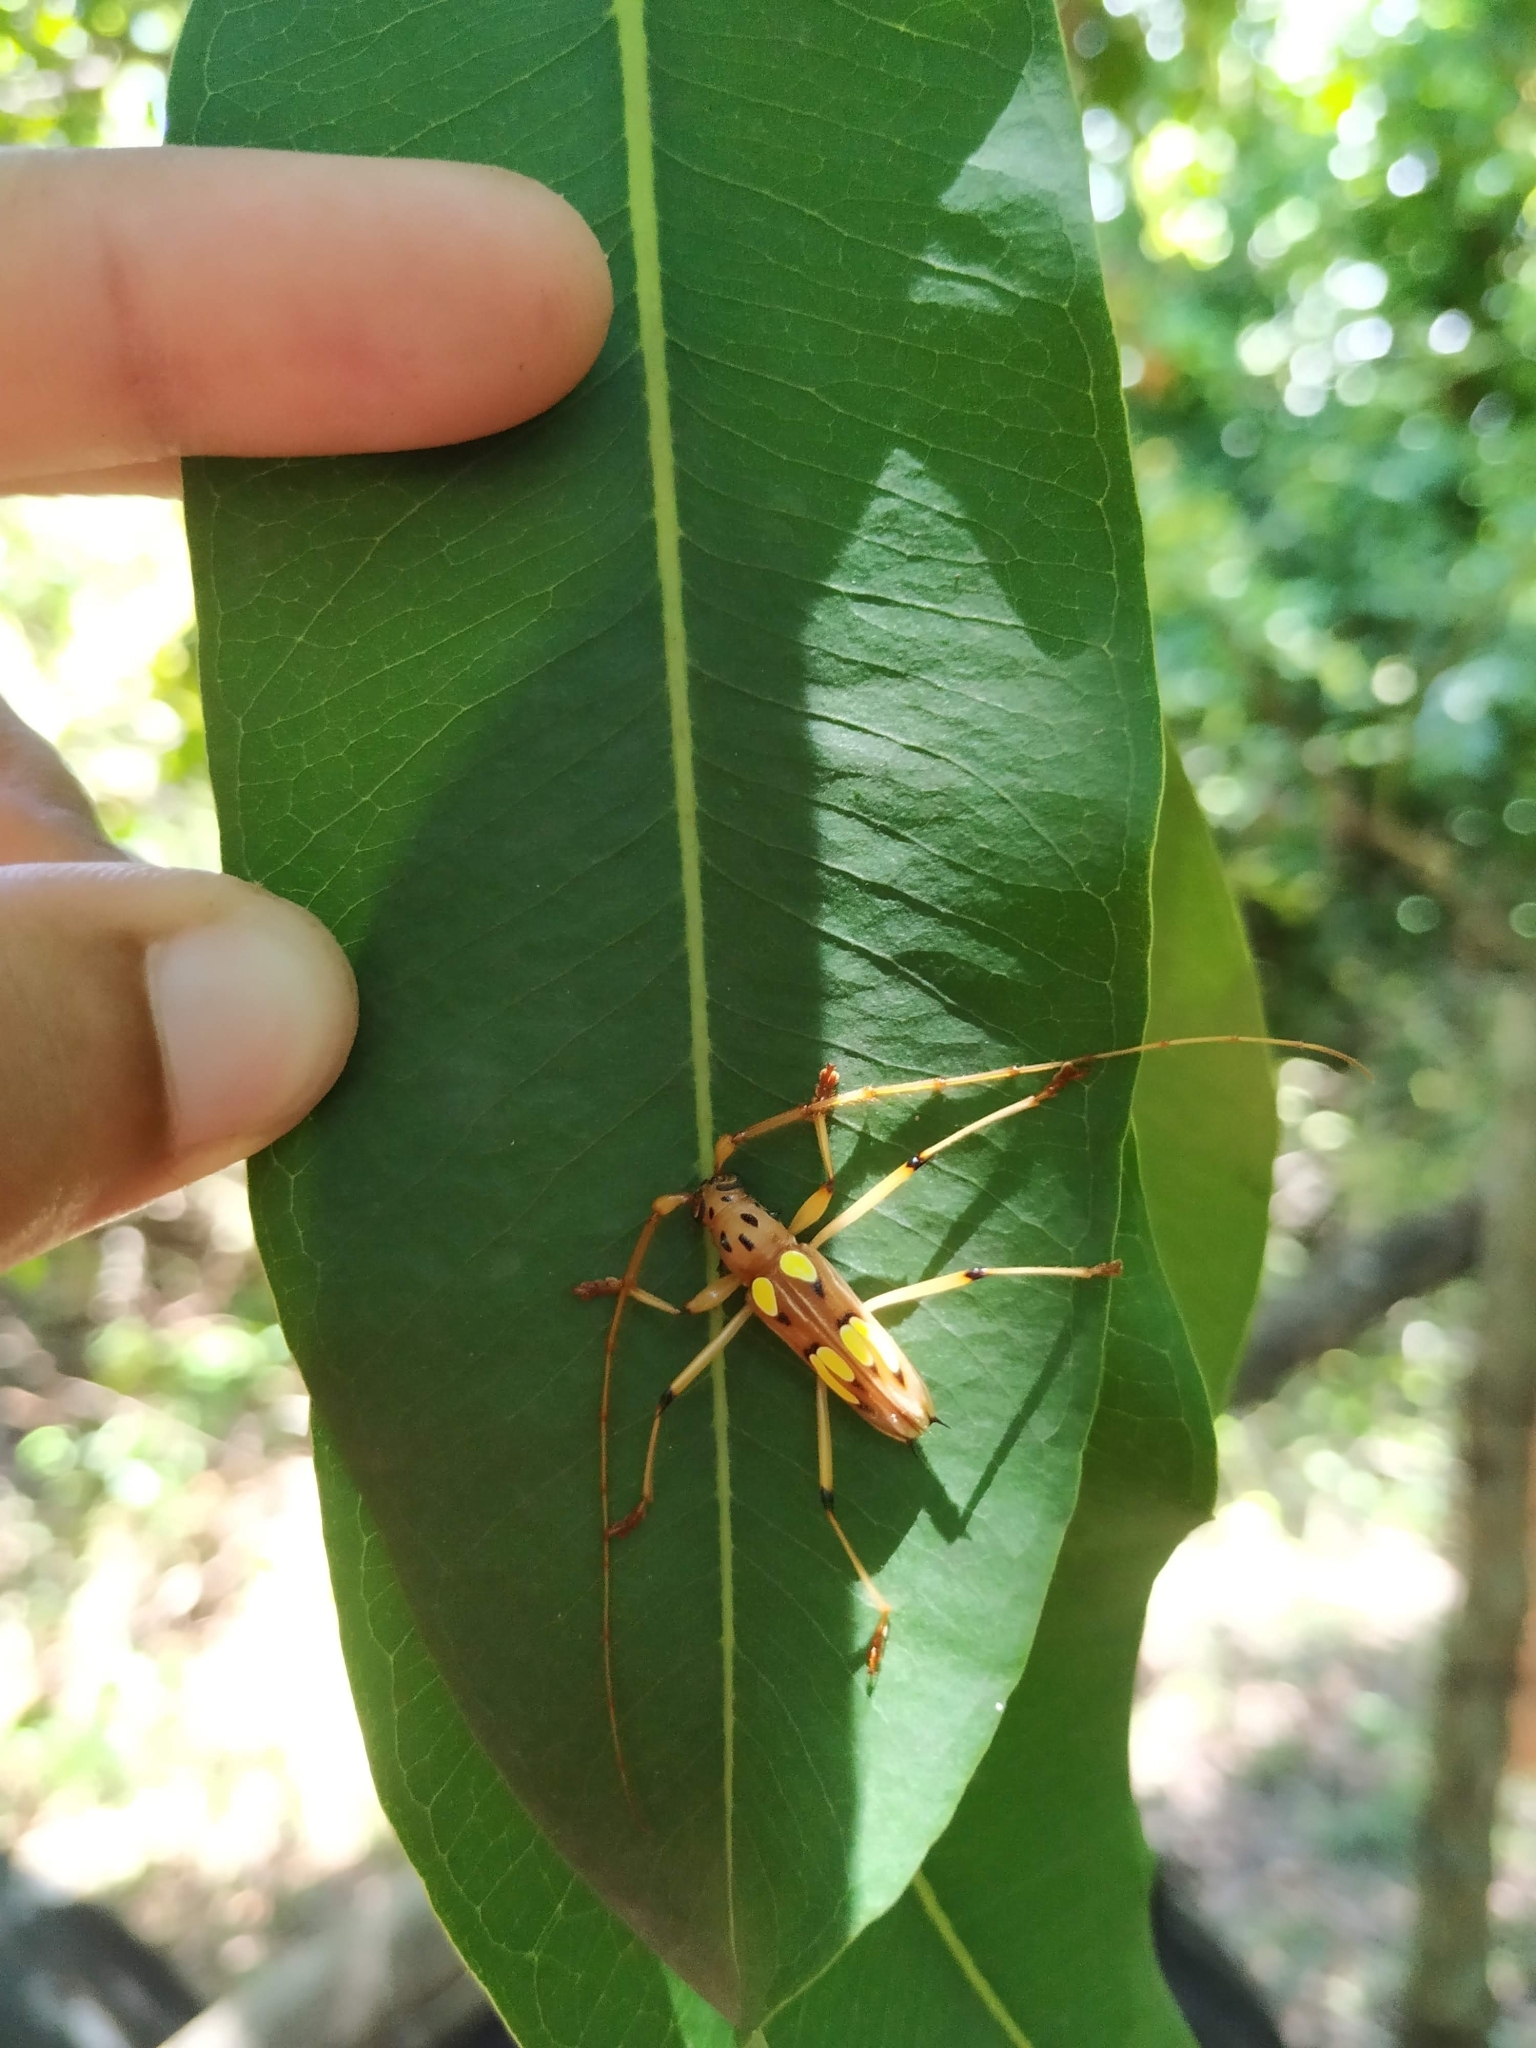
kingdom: Animalia
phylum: Arthropoda
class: Insecta
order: Coleoptera
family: Cerambycidae
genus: Eburodacrys
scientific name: Eburodacrys quadridens
